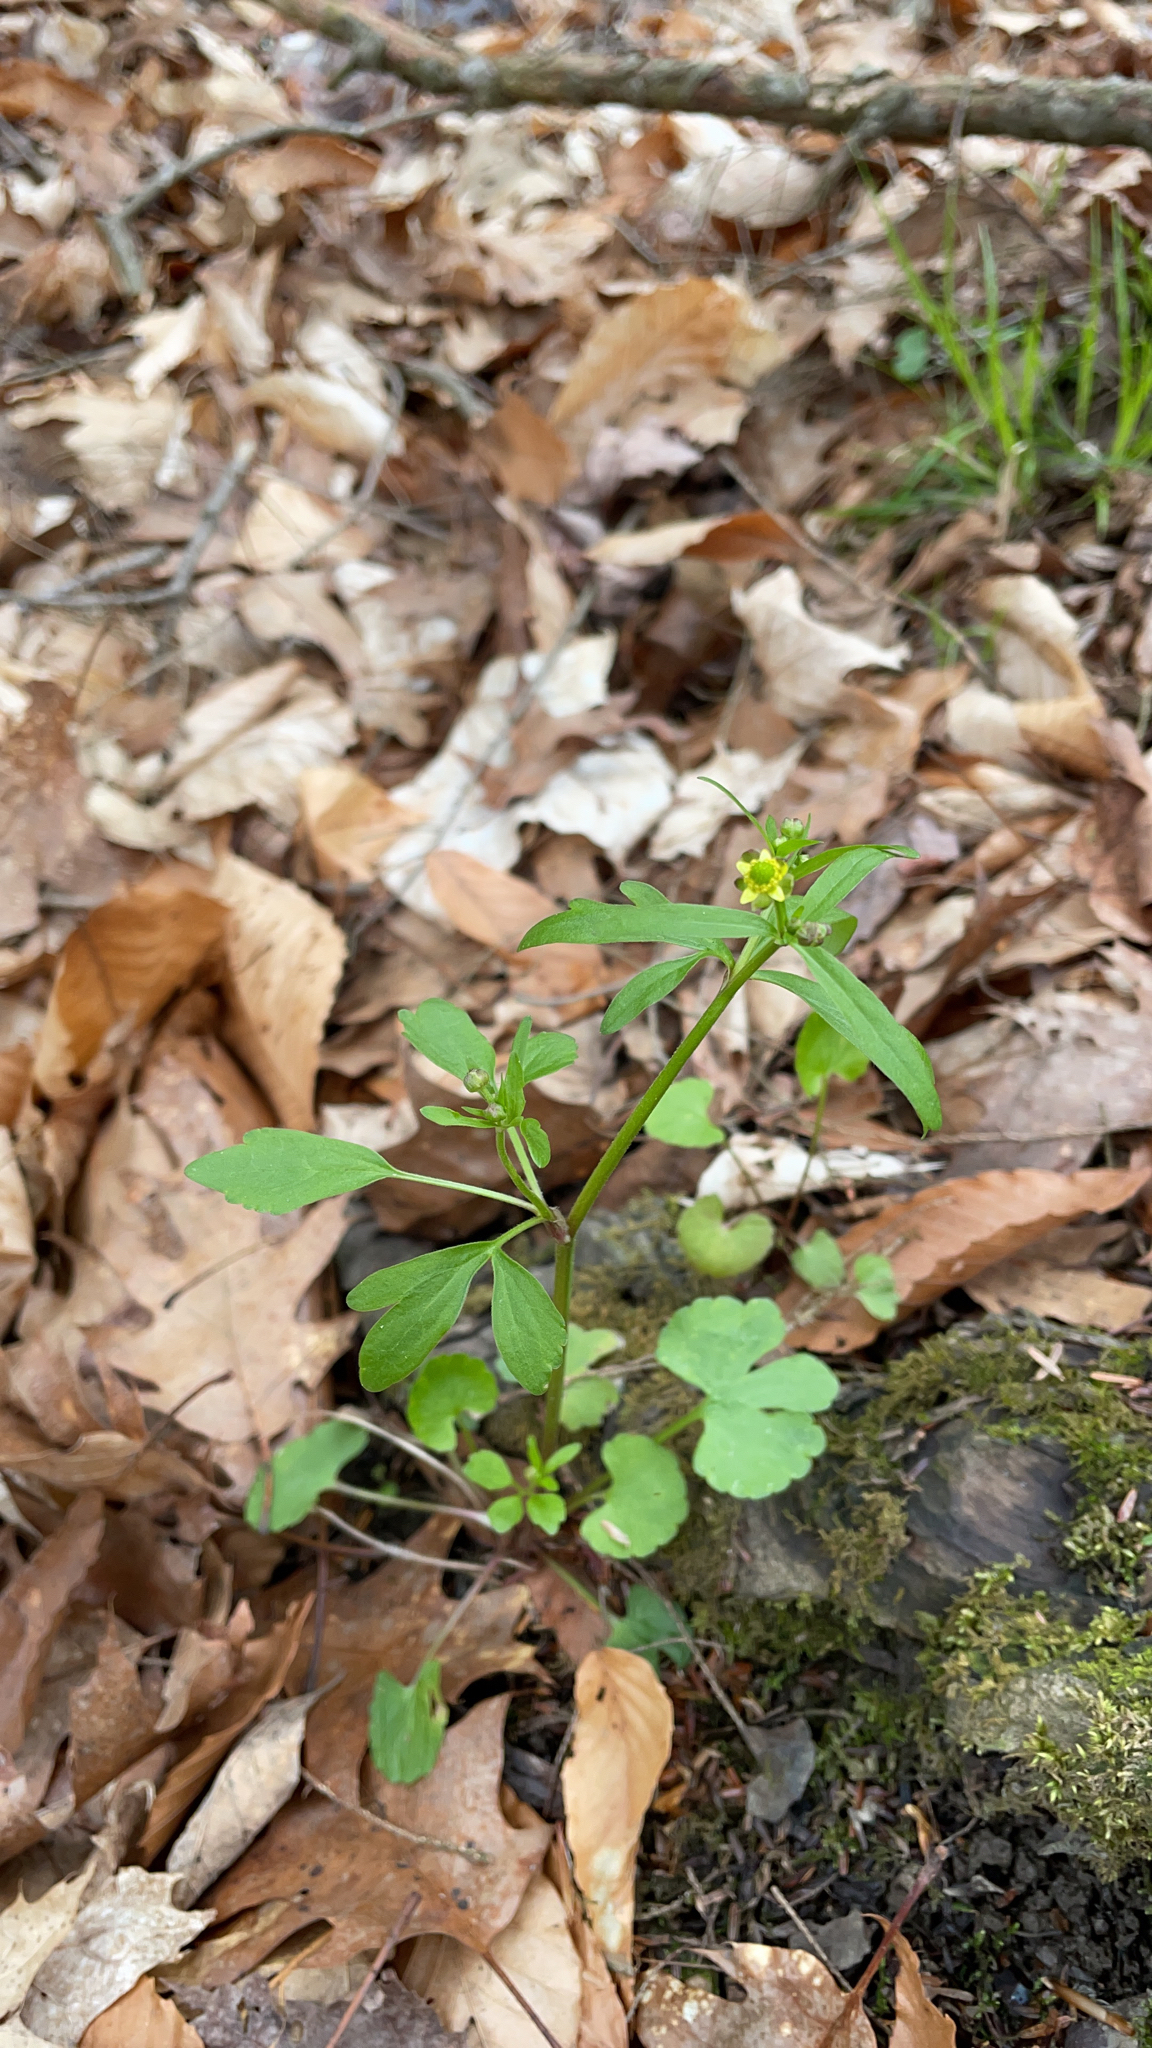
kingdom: Plantae
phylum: Tracheophyta
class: Magnoliopsida
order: Ranunculales
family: Ranunculaceae
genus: Ranunculus
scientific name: Ranunculus abortivus
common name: Early wood buttercup
